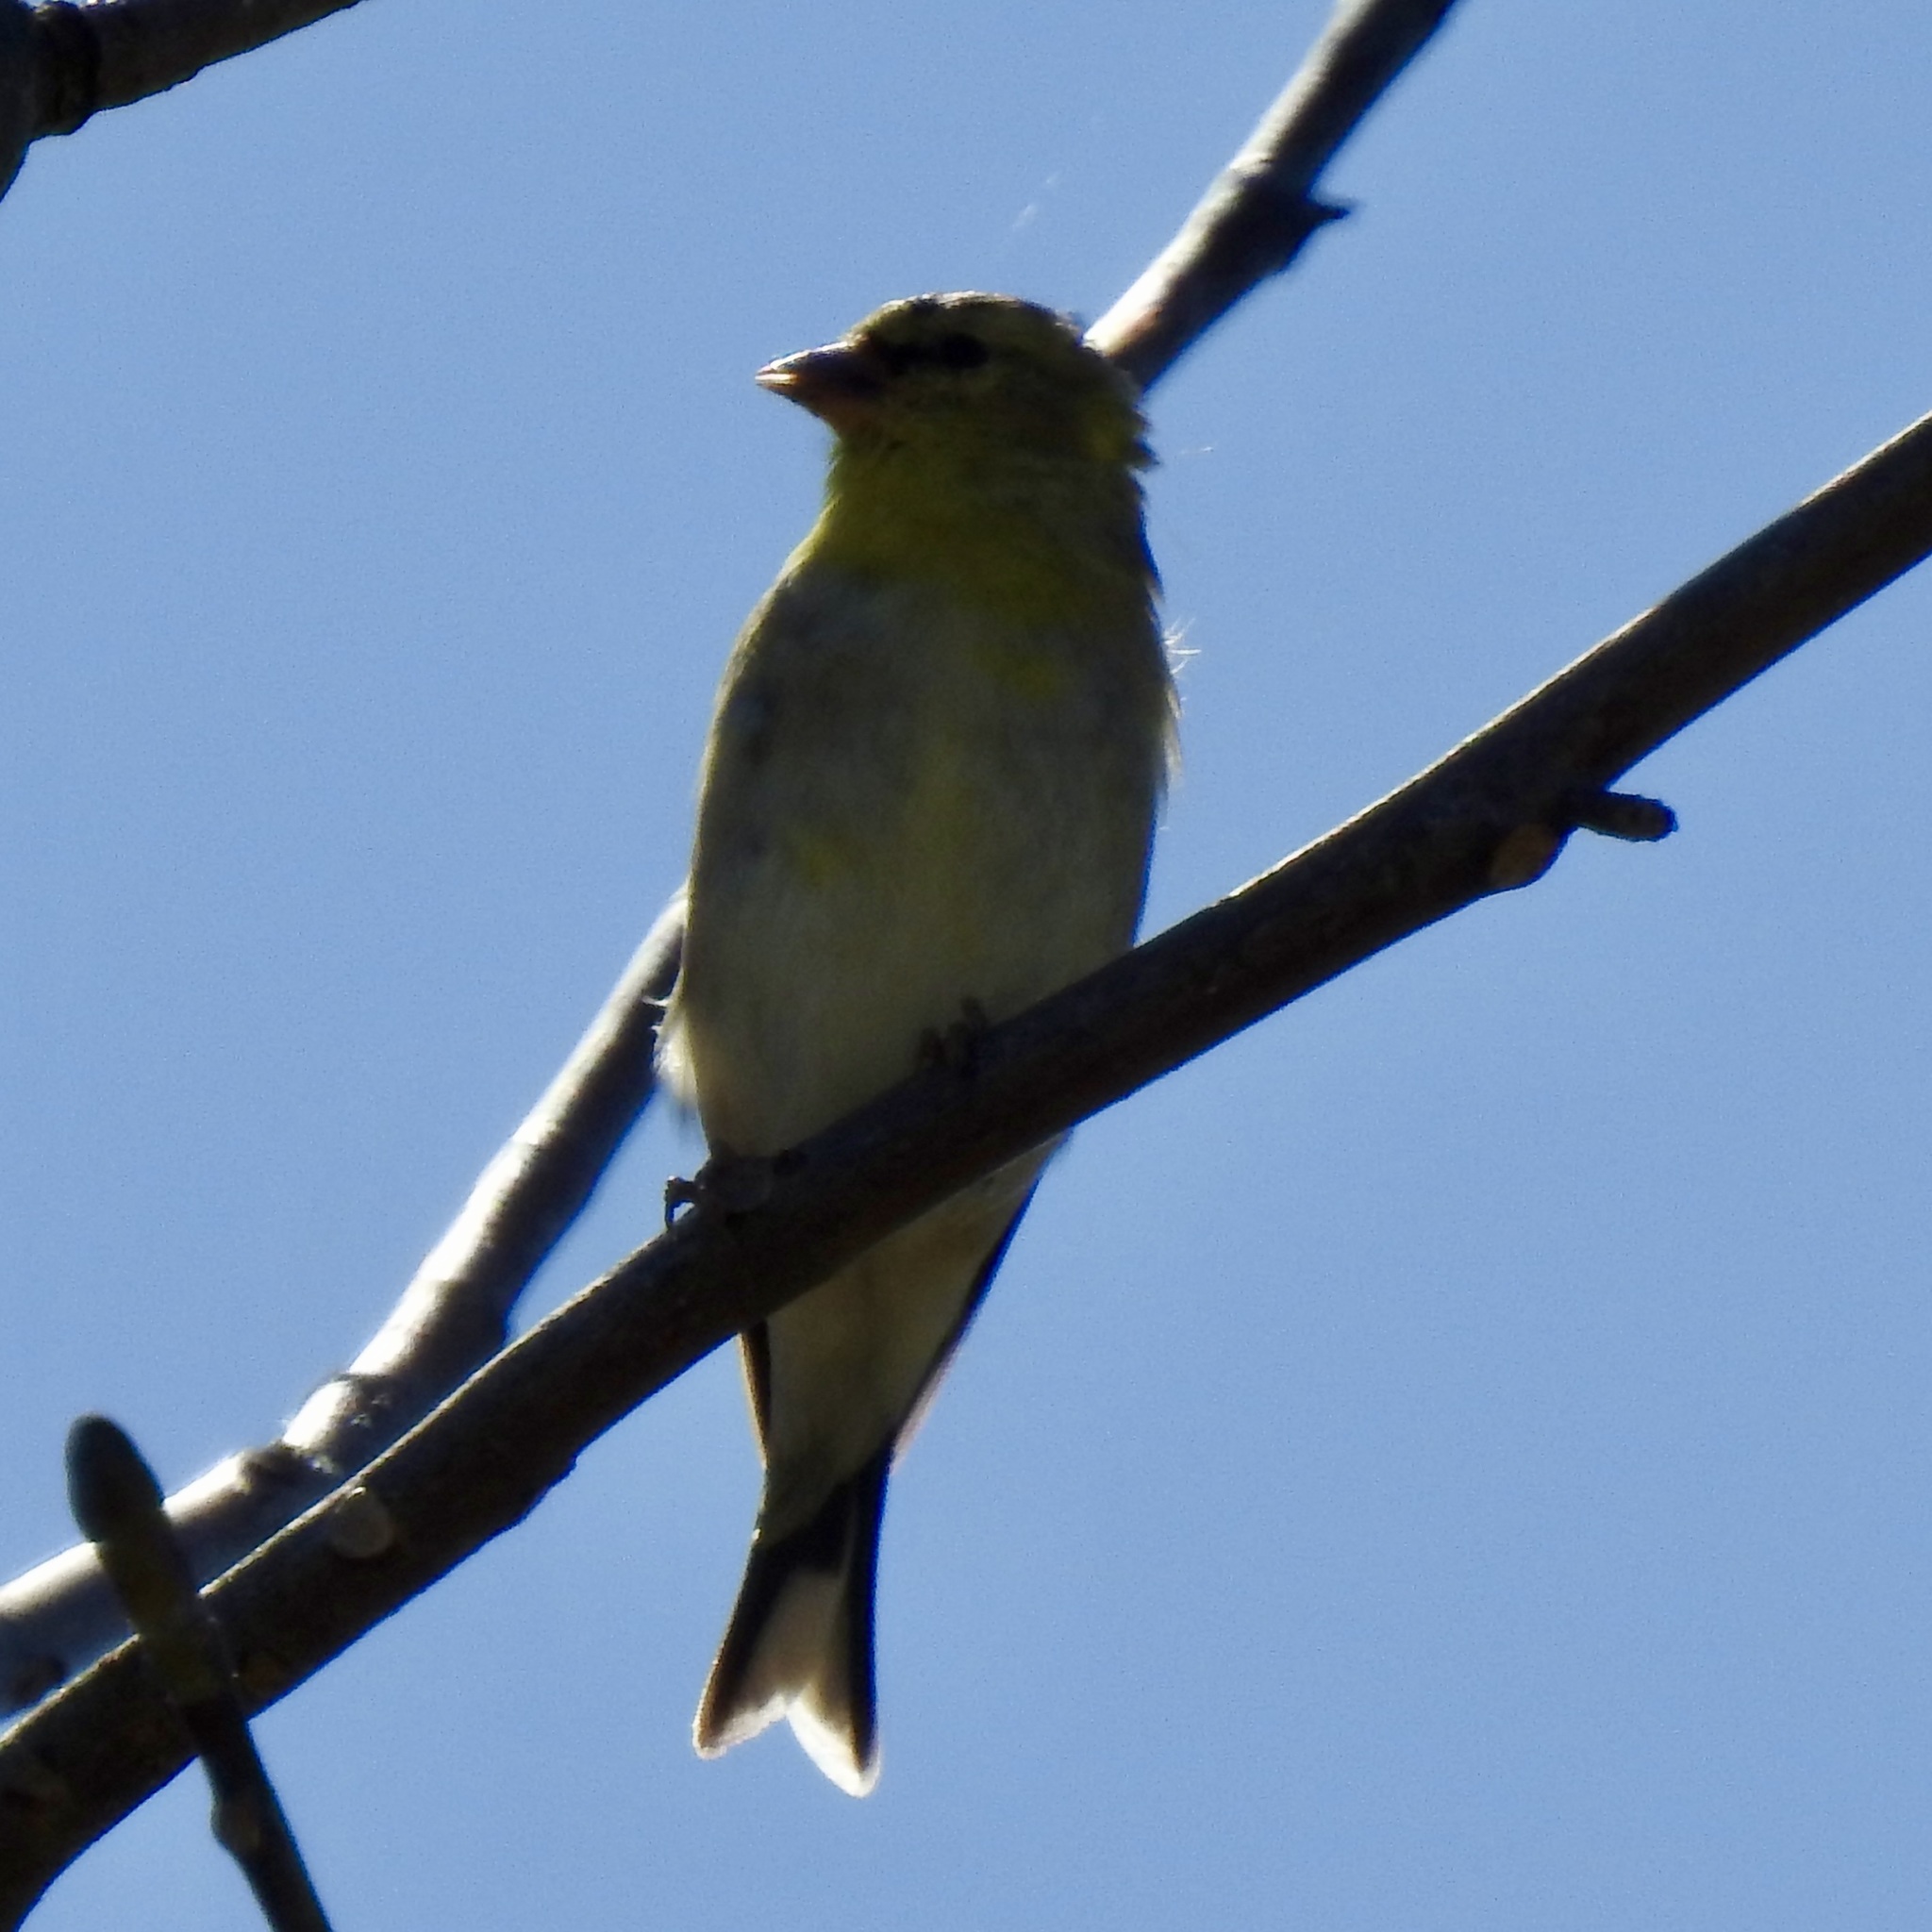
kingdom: Animalia
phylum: Chordata
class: Aves
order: Passeriformes
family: Fringillidae
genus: Spinus
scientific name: Spinus tristis
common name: American goldfinch
